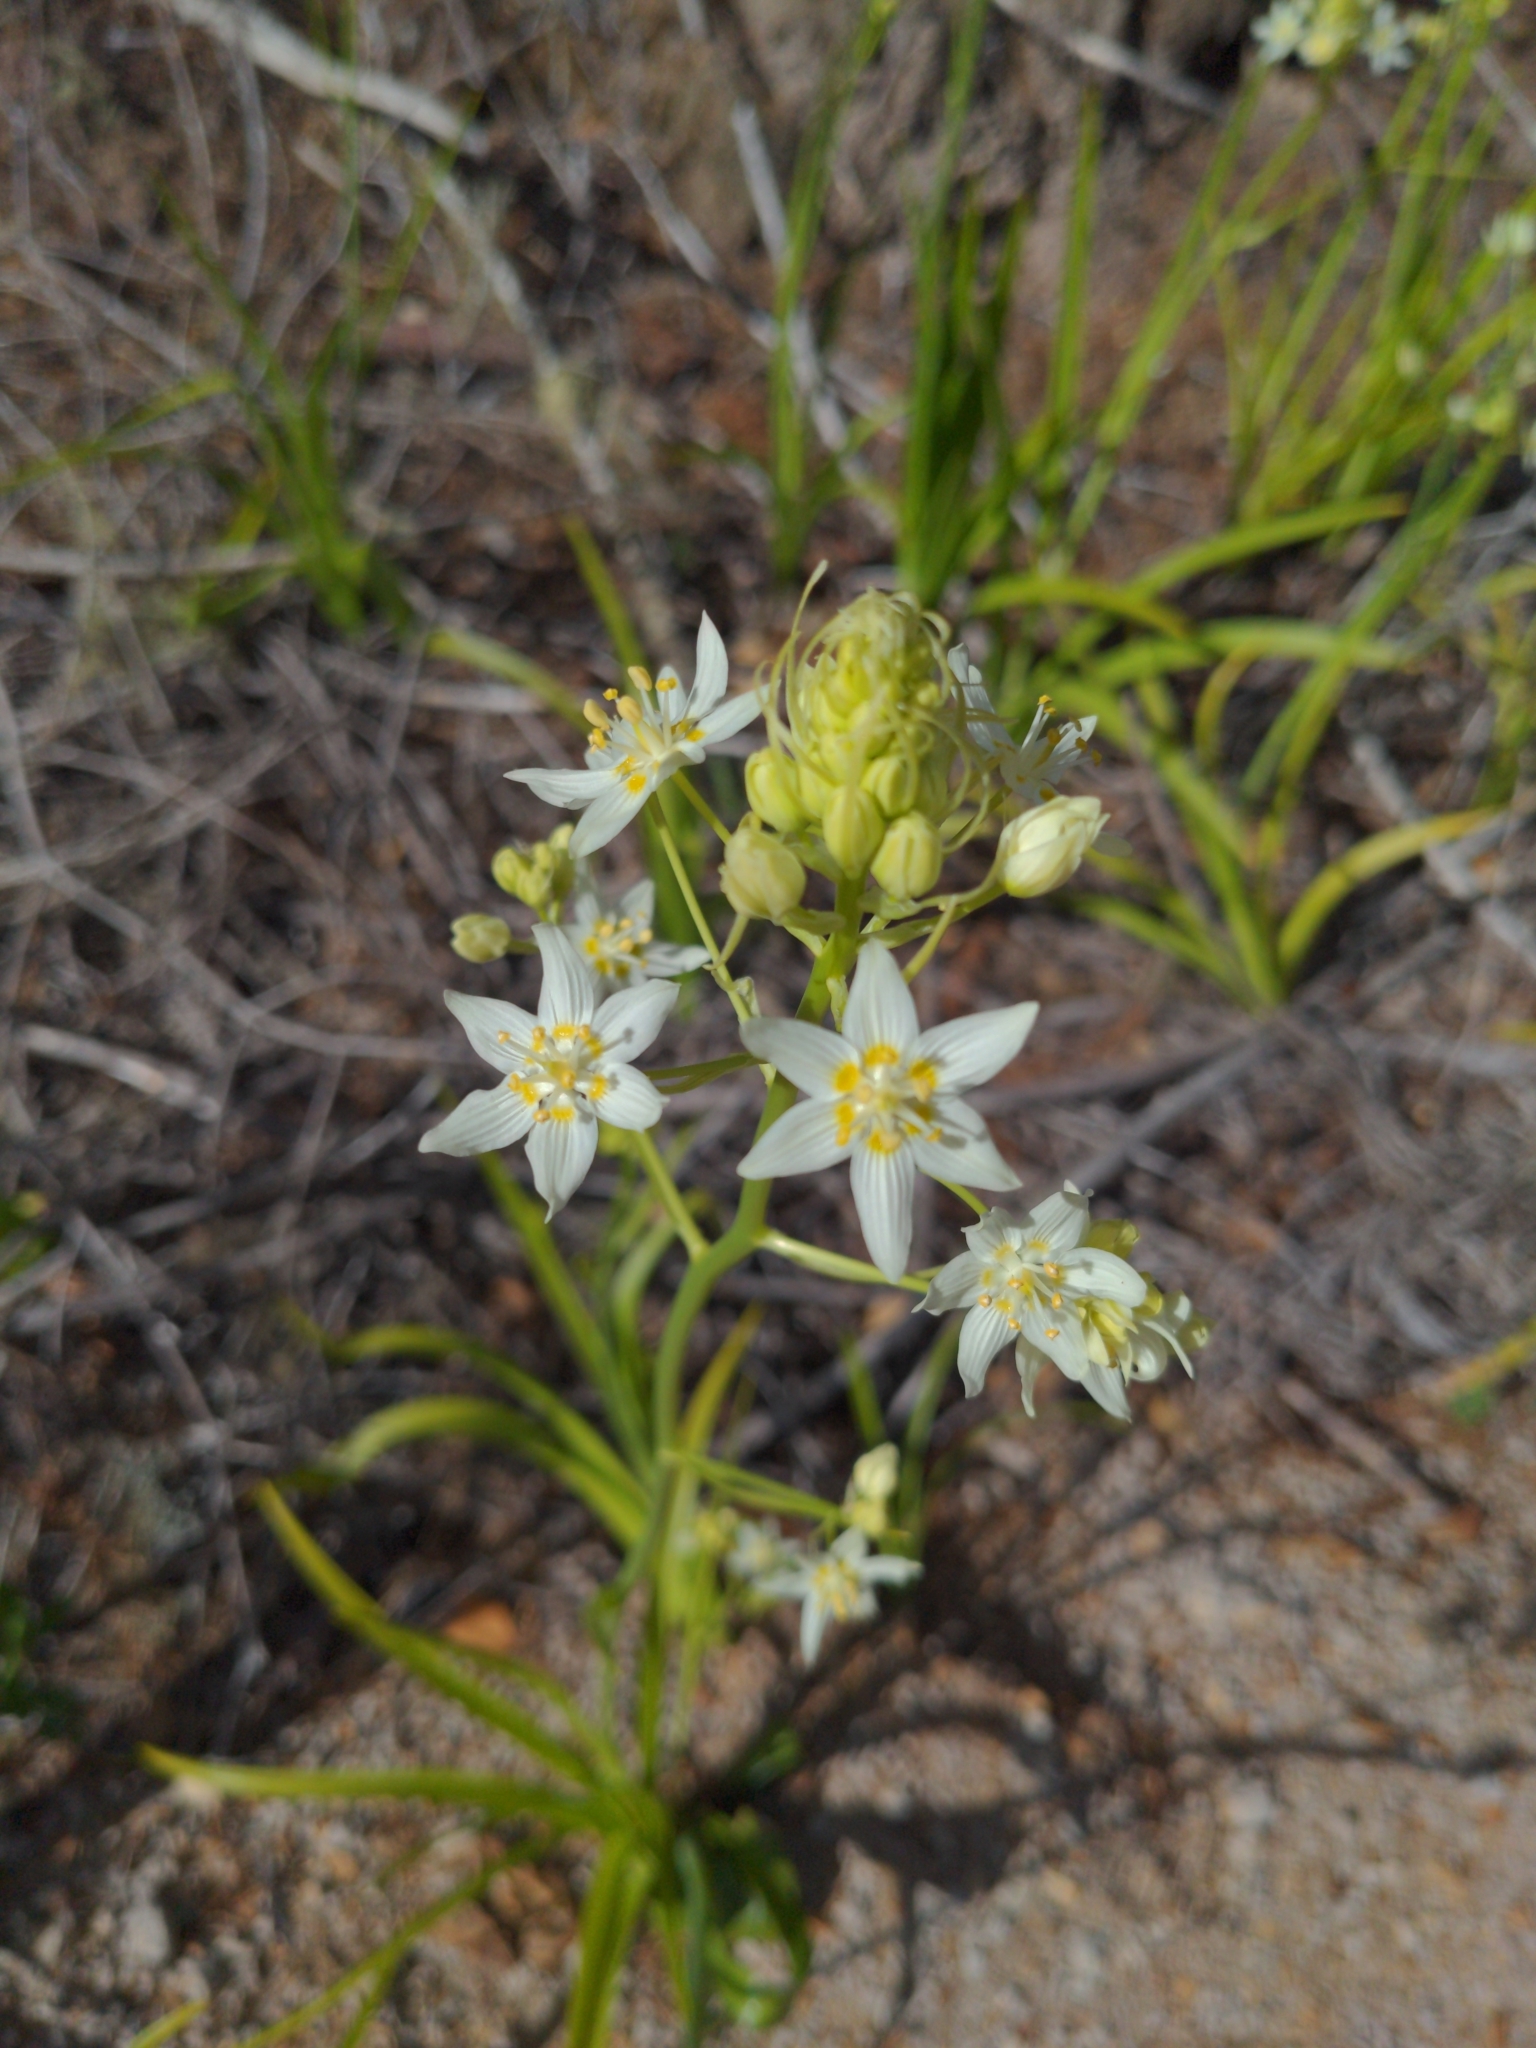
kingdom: Plantae
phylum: Tracheophyta
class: Liliopsida
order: Liliales
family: Melanthiaceae
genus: Toxicoscordion
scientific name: Toxicoscordion fremontii
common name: Fremont's death camas
